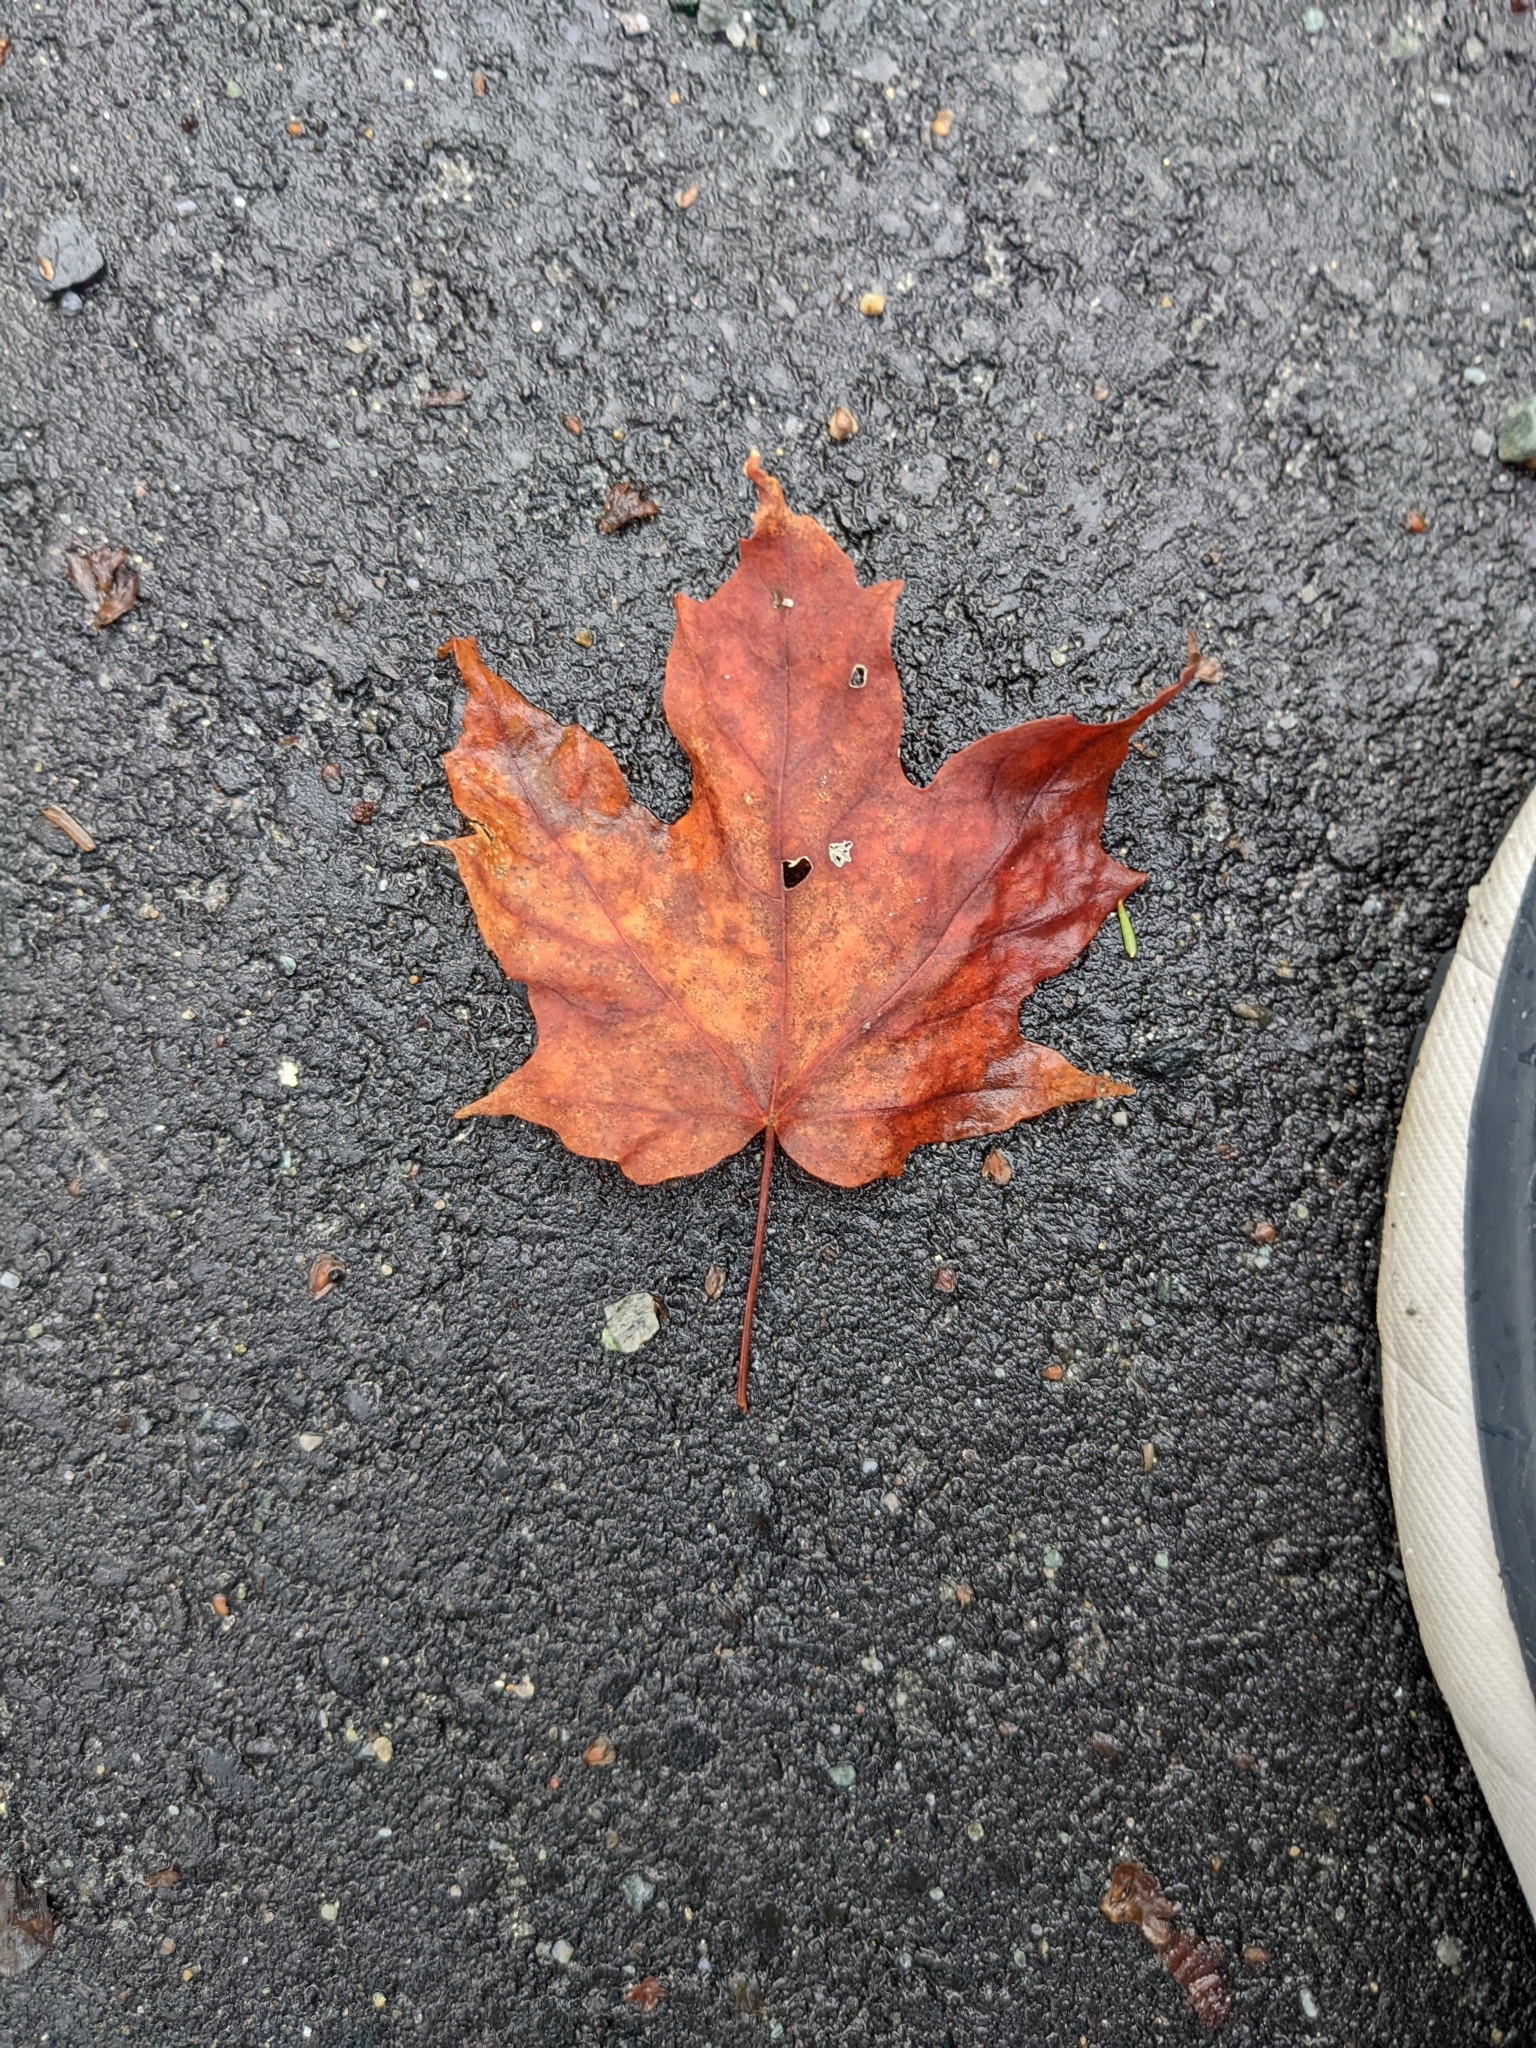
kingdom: Plantae
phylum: Tracheophyta
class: Magnoliopsida
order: Sapindales
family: Sapindaceae
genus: Acer
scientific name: Acer saccharum
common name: Sugar maple
